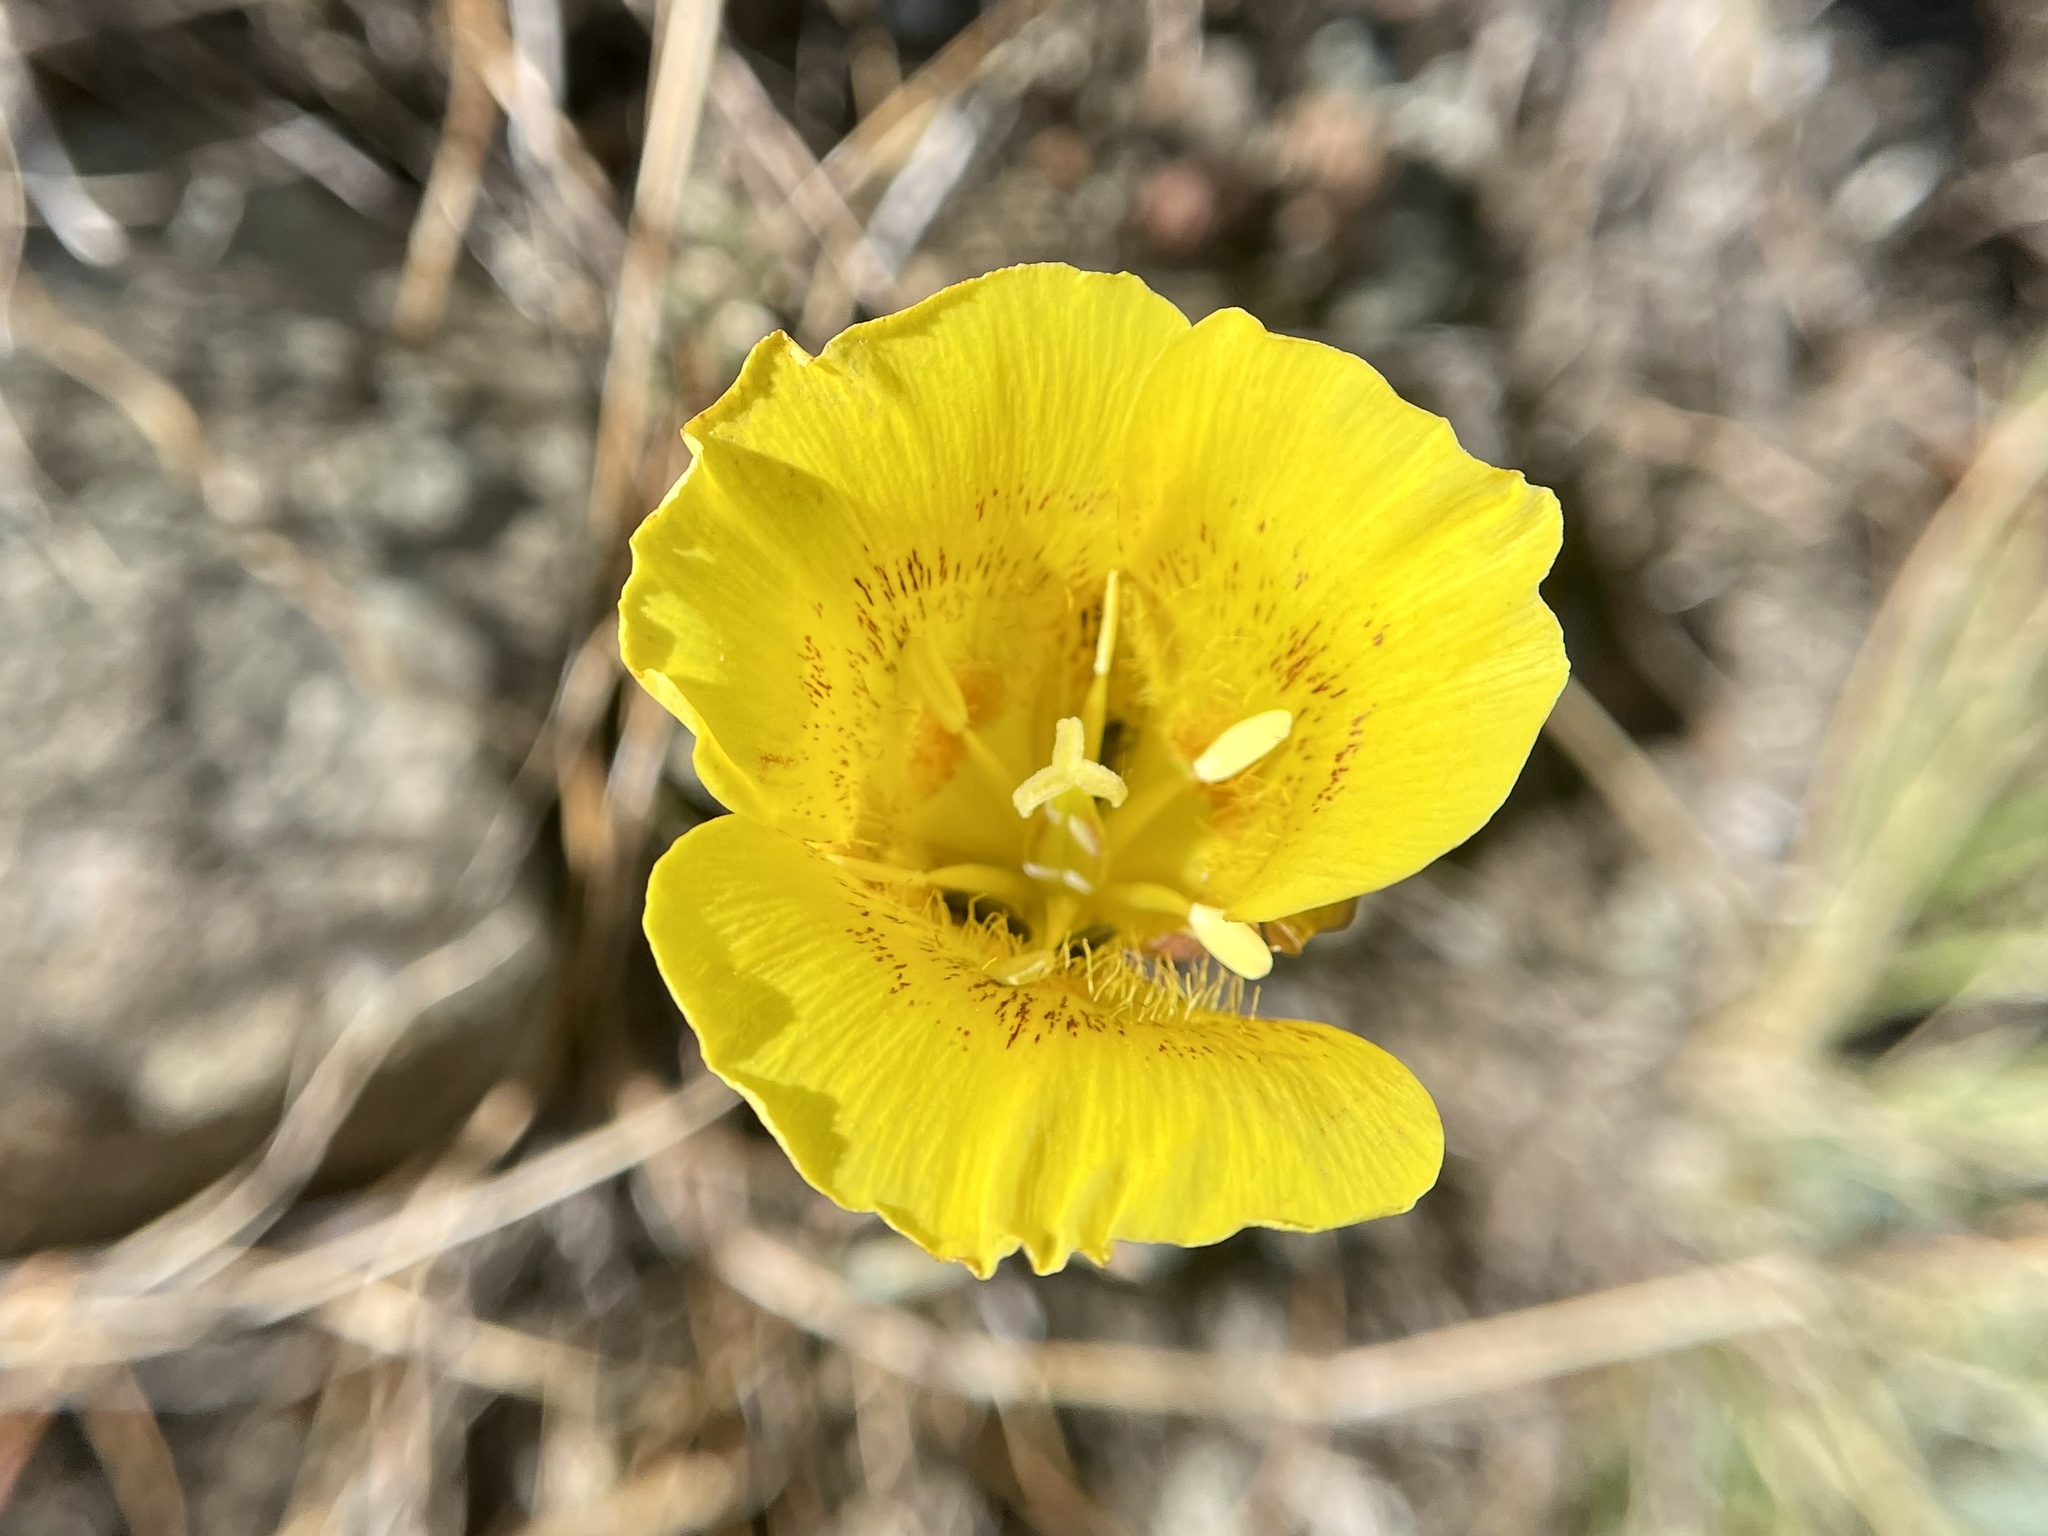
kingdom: Plantae
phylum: Tracheophyta
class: Liliopsida
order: Liliales
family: Liliaceae
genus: Calochortus
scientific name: Calochortus luteus
